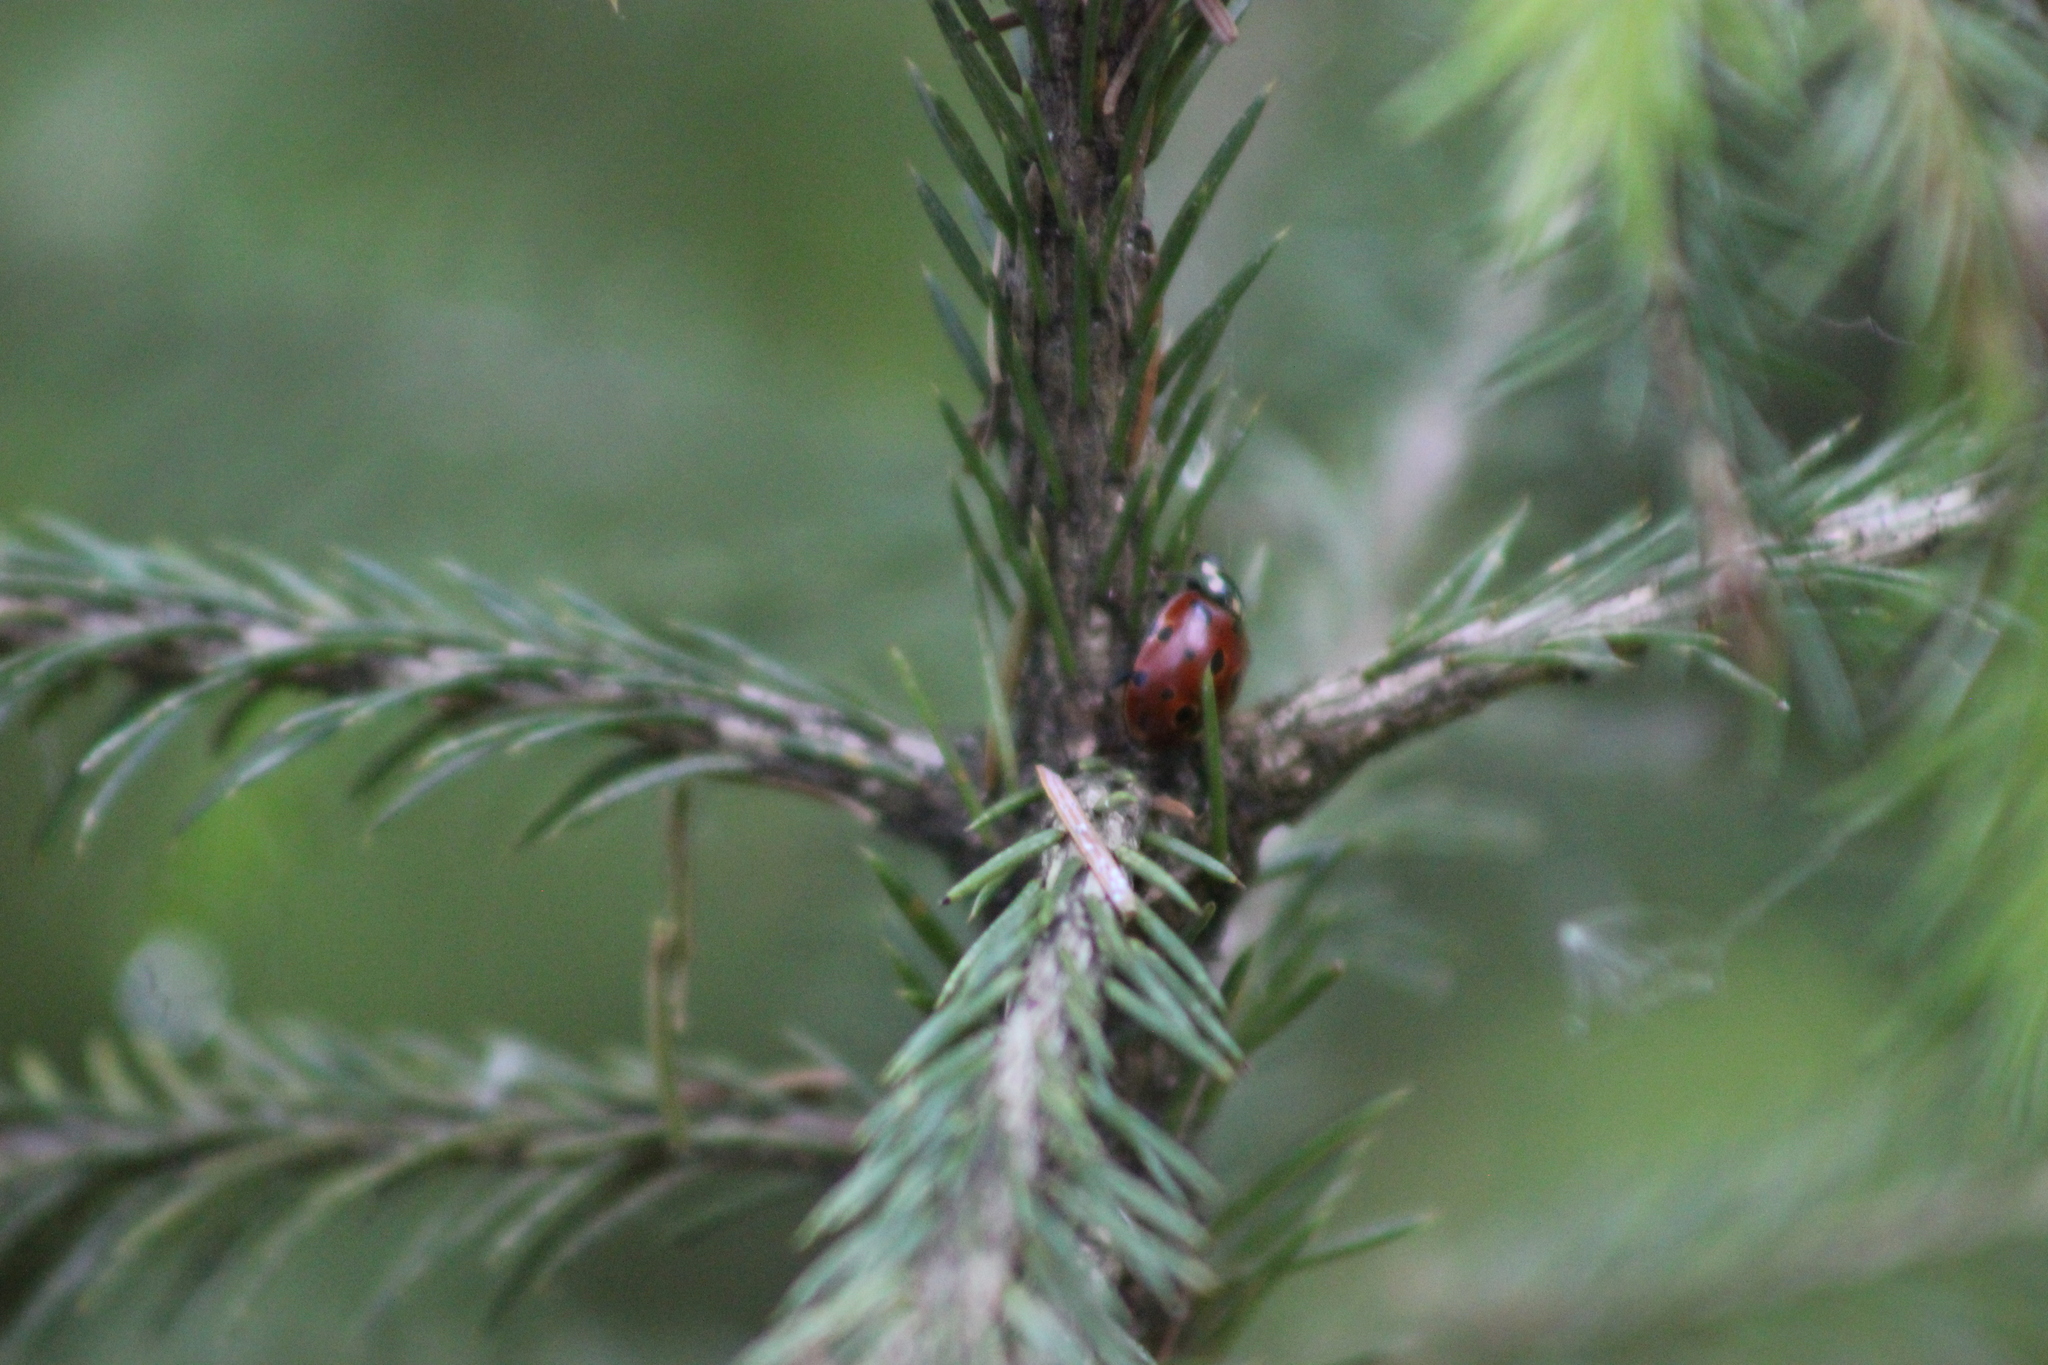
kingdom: Animalia
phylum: Arthropoda
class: Insecta
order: Coleoptera
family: Coccinellidae
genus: Anatis
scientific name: Anatis ocellata
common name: Eyed ladybird
